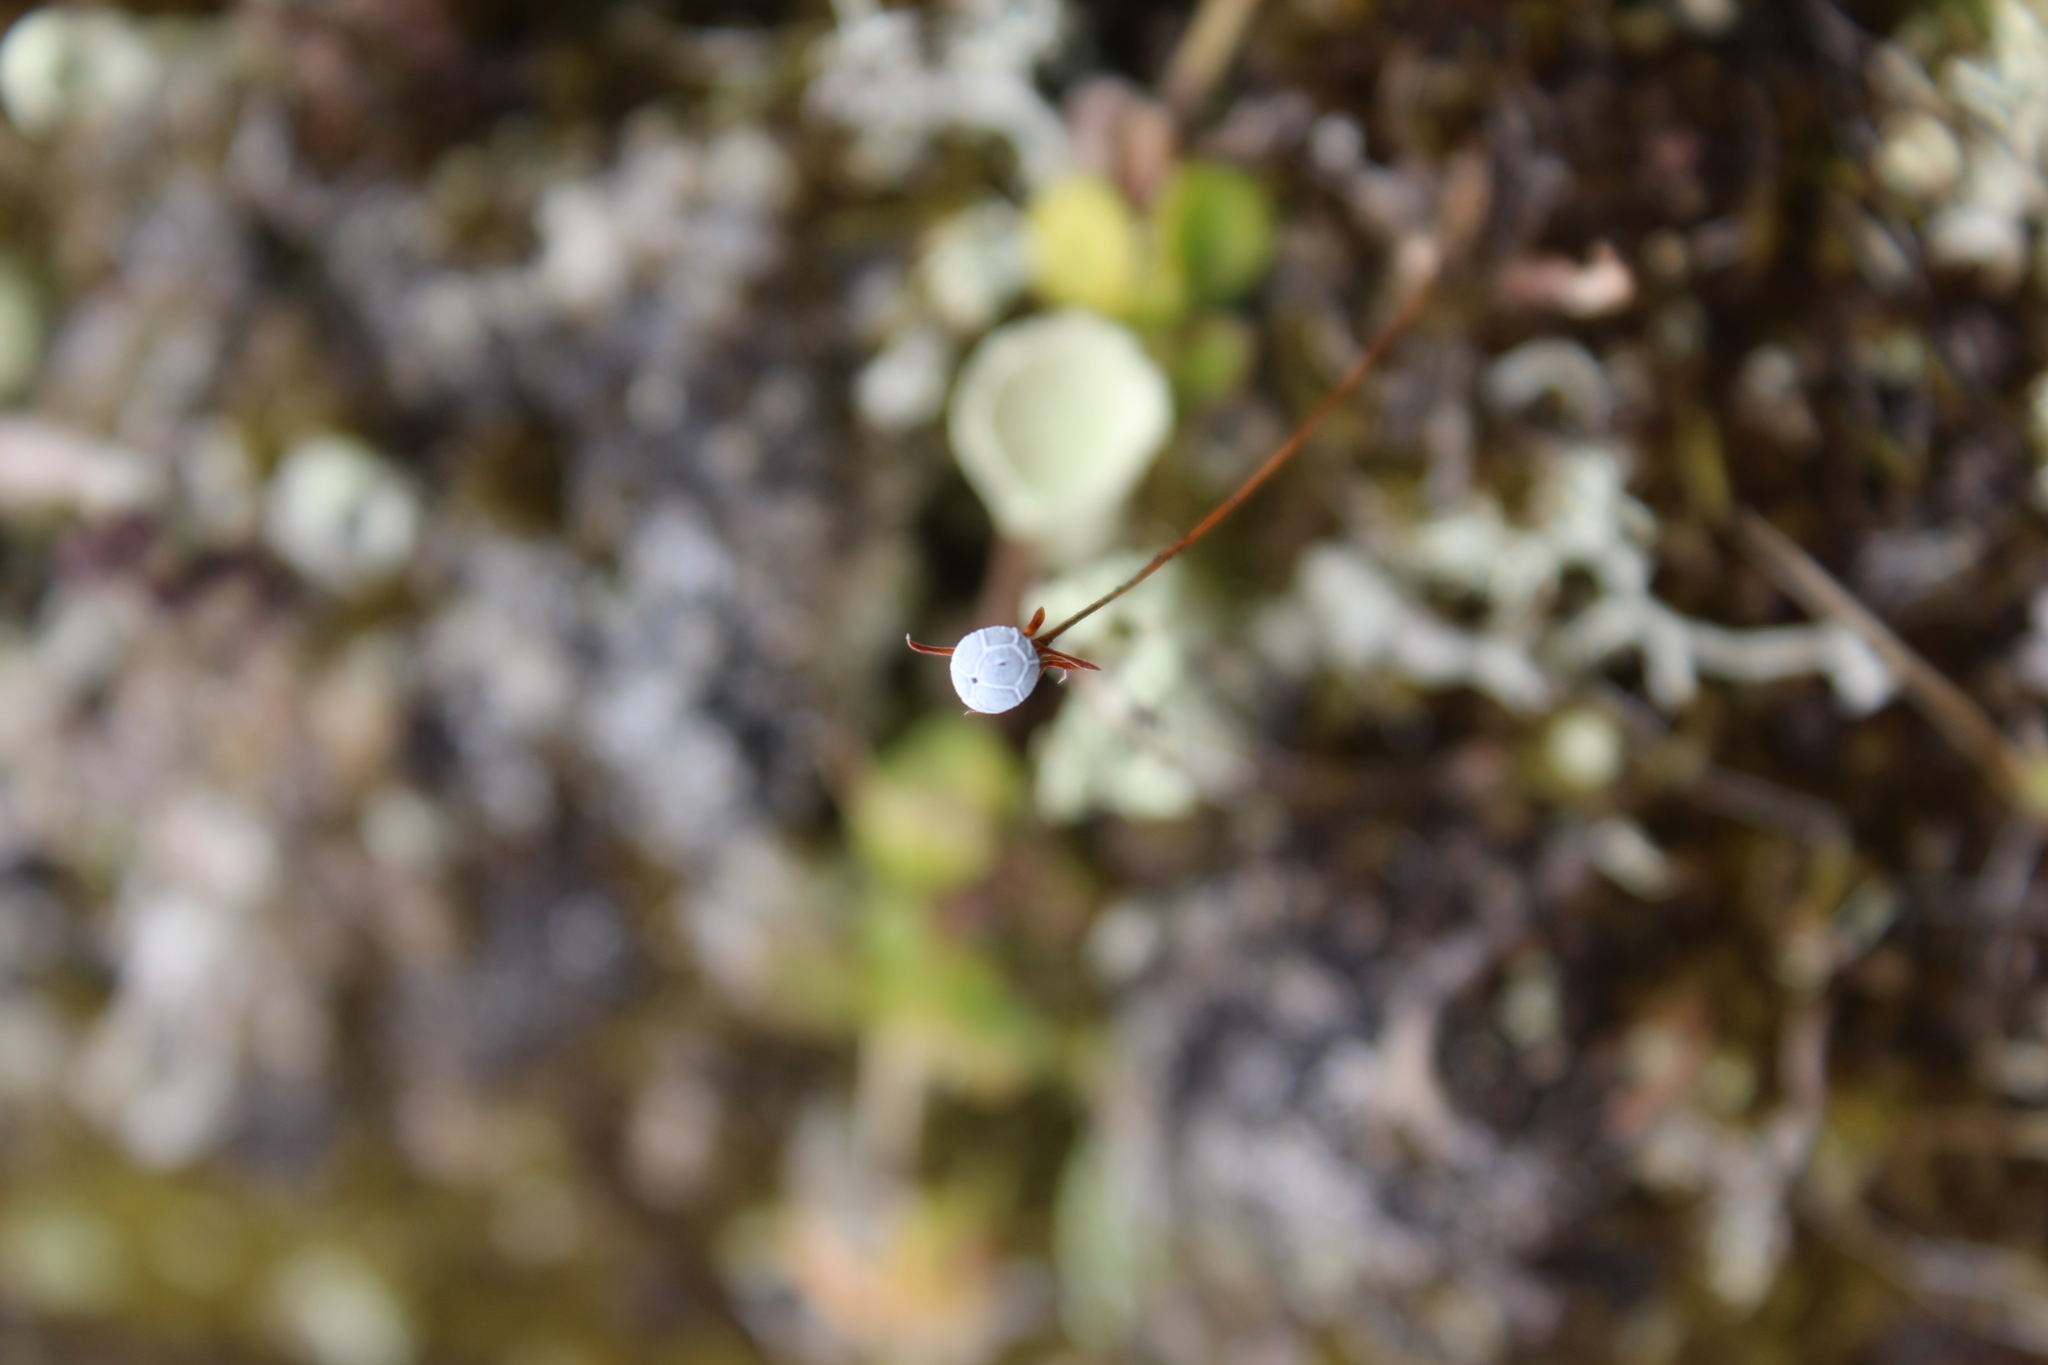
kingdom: Plantae
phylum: Tracheophyta
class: Magnoliopsida
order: Ericales
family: Primulaceae
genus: Lysimachia
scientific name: Lysimachia europaea
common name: Arctic starflower
